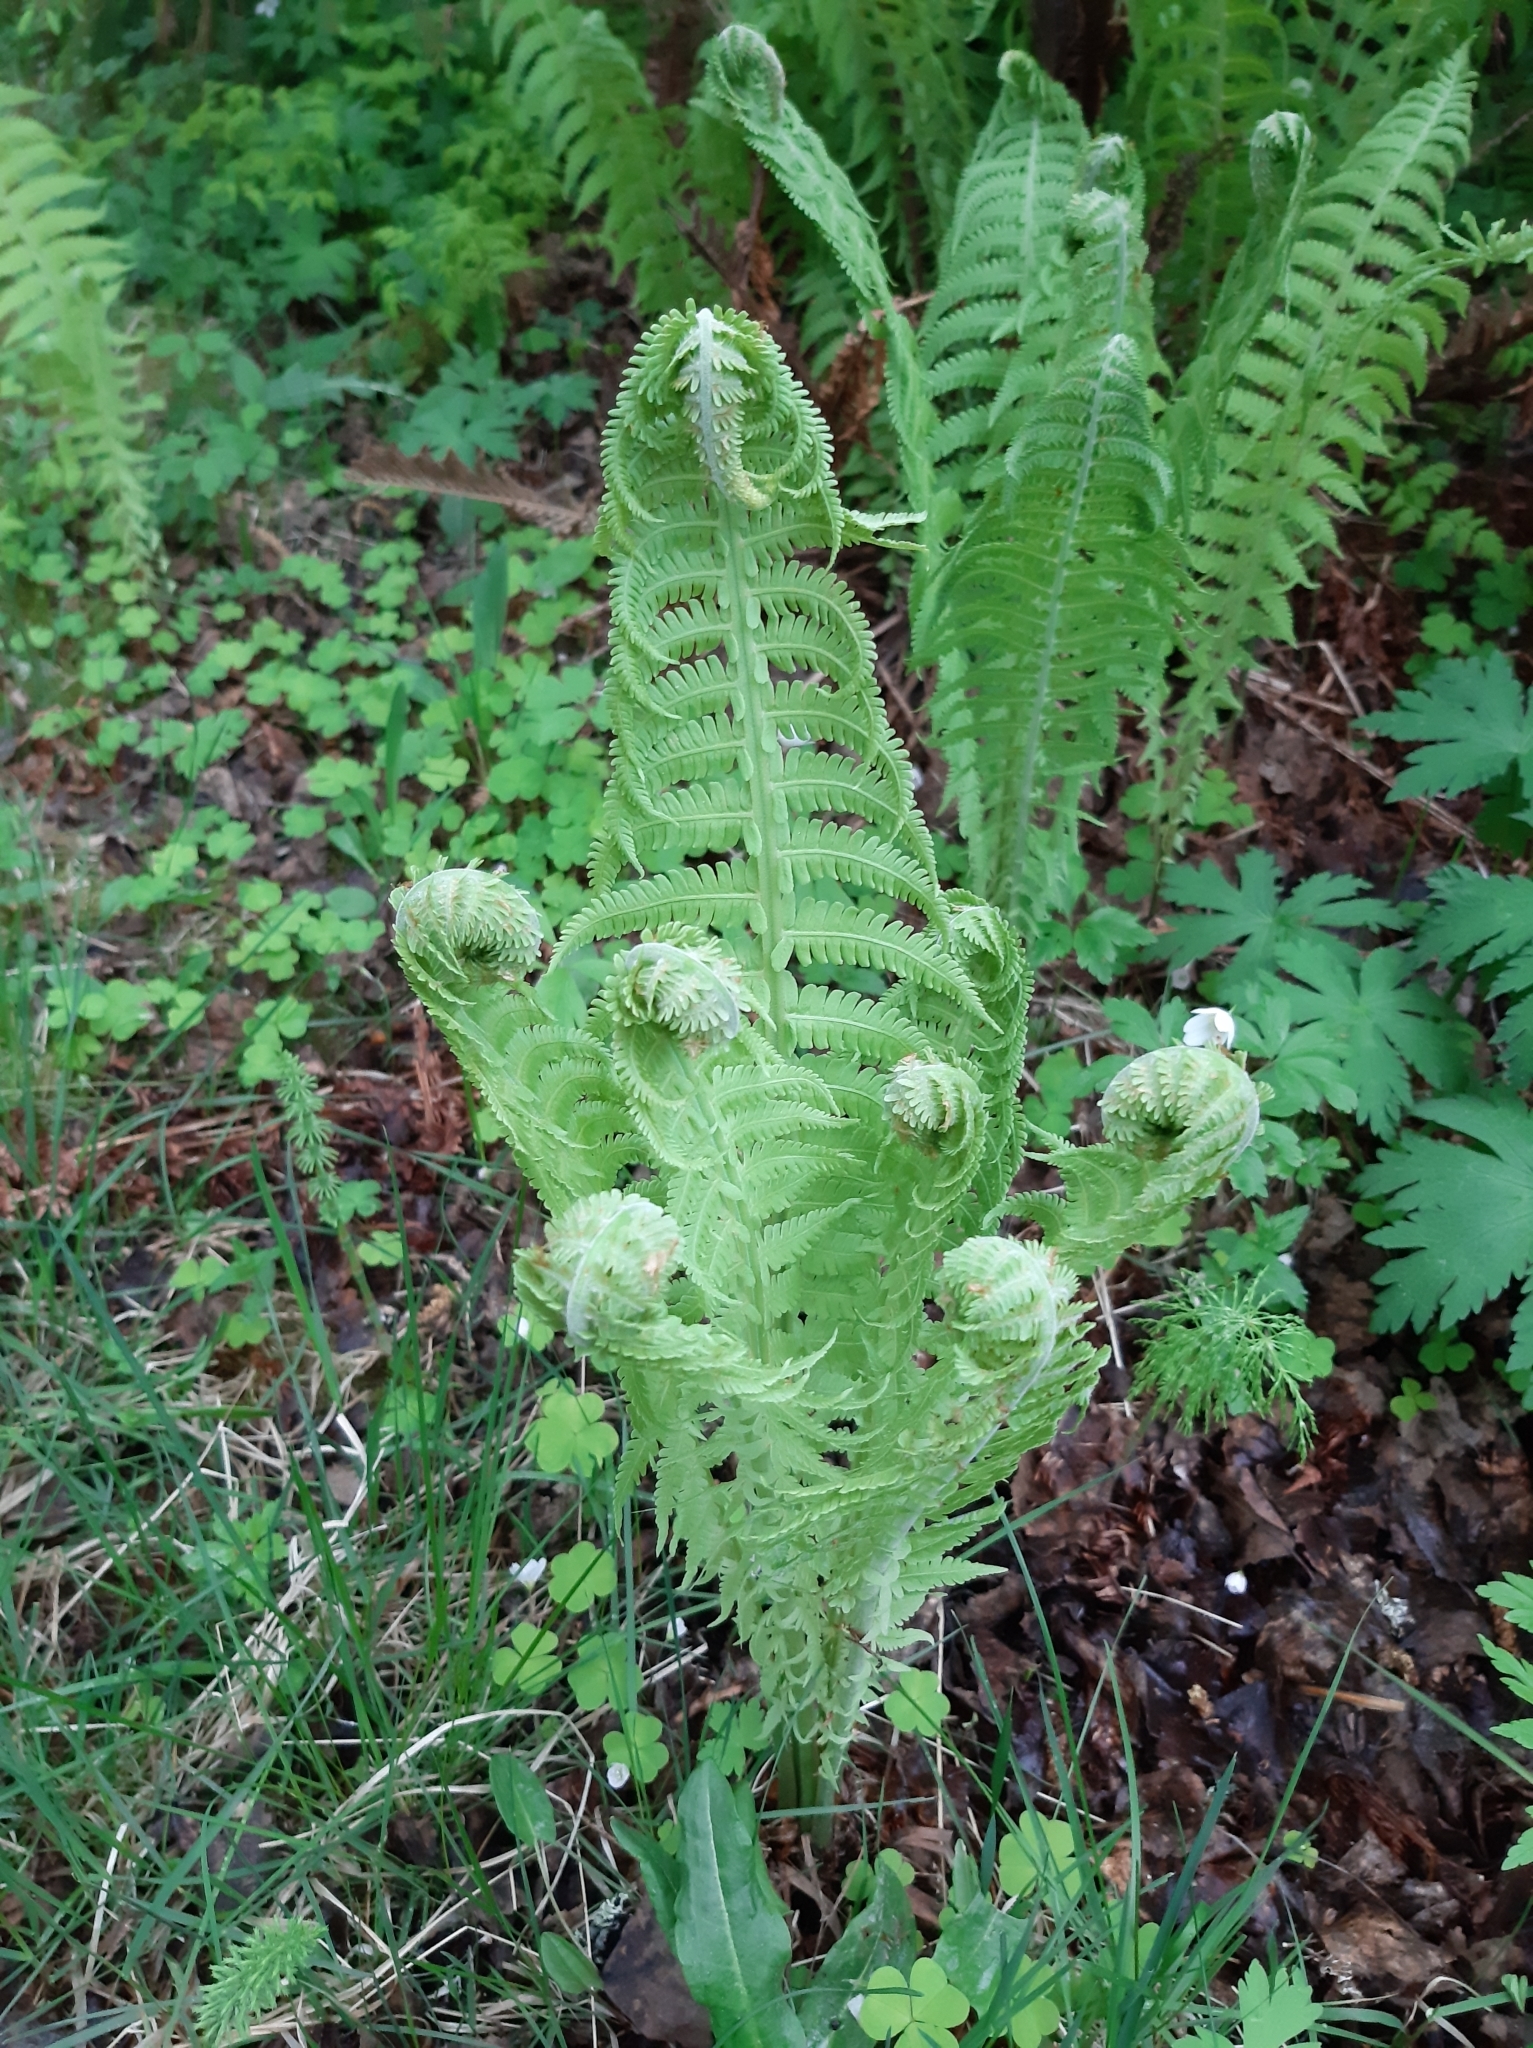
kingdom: Plantae
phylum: Tracheophyta
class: Polypodiopsida
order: Polypodiales
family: Onocleaceae
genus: Matteuccia
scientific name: Matteuccia struthiopteris
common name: Ostrich fern
